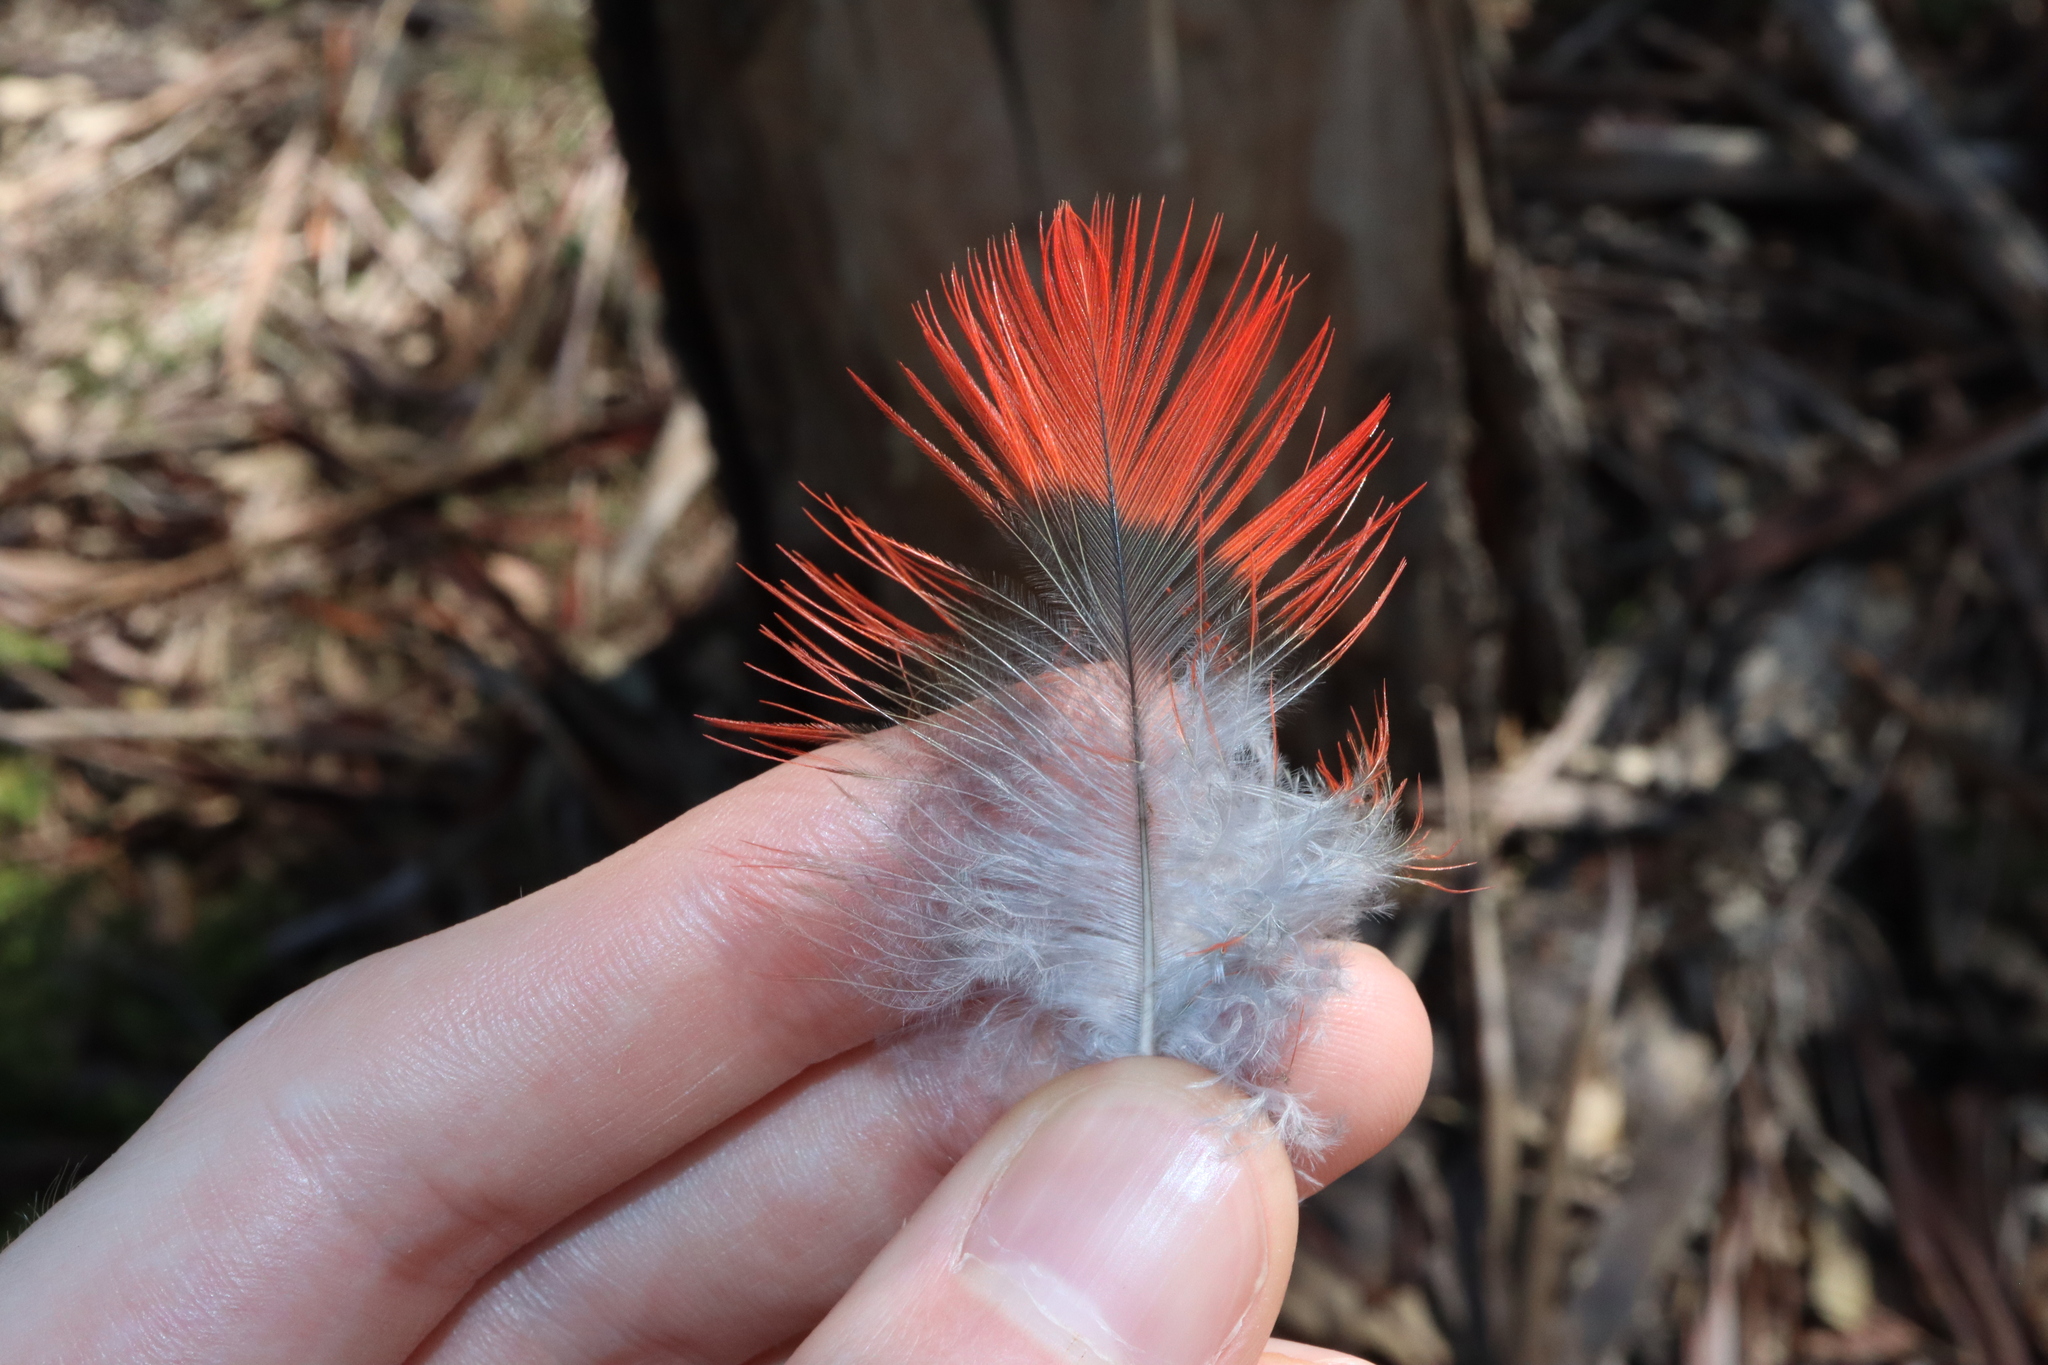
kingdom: Animalia
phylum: Chordata
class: Aves
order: Psittaciformes
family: Psittacidae
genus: Callocephalon
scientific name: Callocephalon fimbriatum
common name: Gang-gang cockatoo
